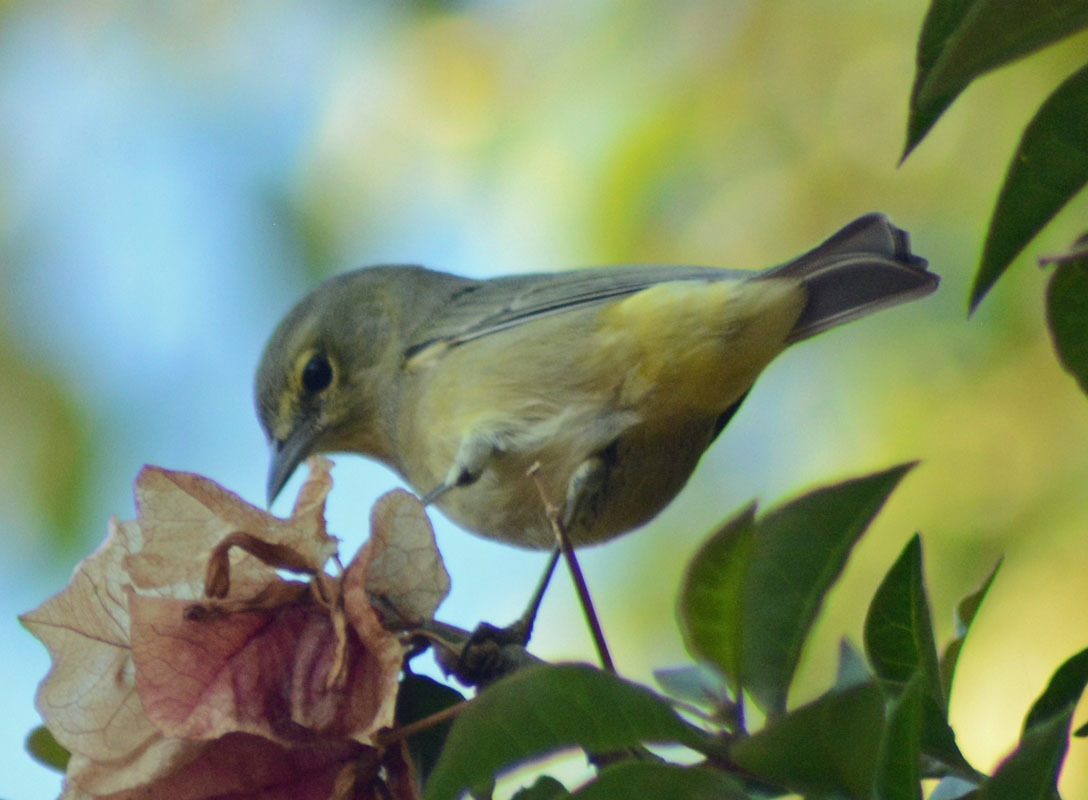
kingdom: Animalia
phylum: Chordata
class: Aves
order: Passeriformes
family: Parulidae
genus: Leiothlypis
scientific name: Leiothlypis celata
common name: Orange-crowned warbler
